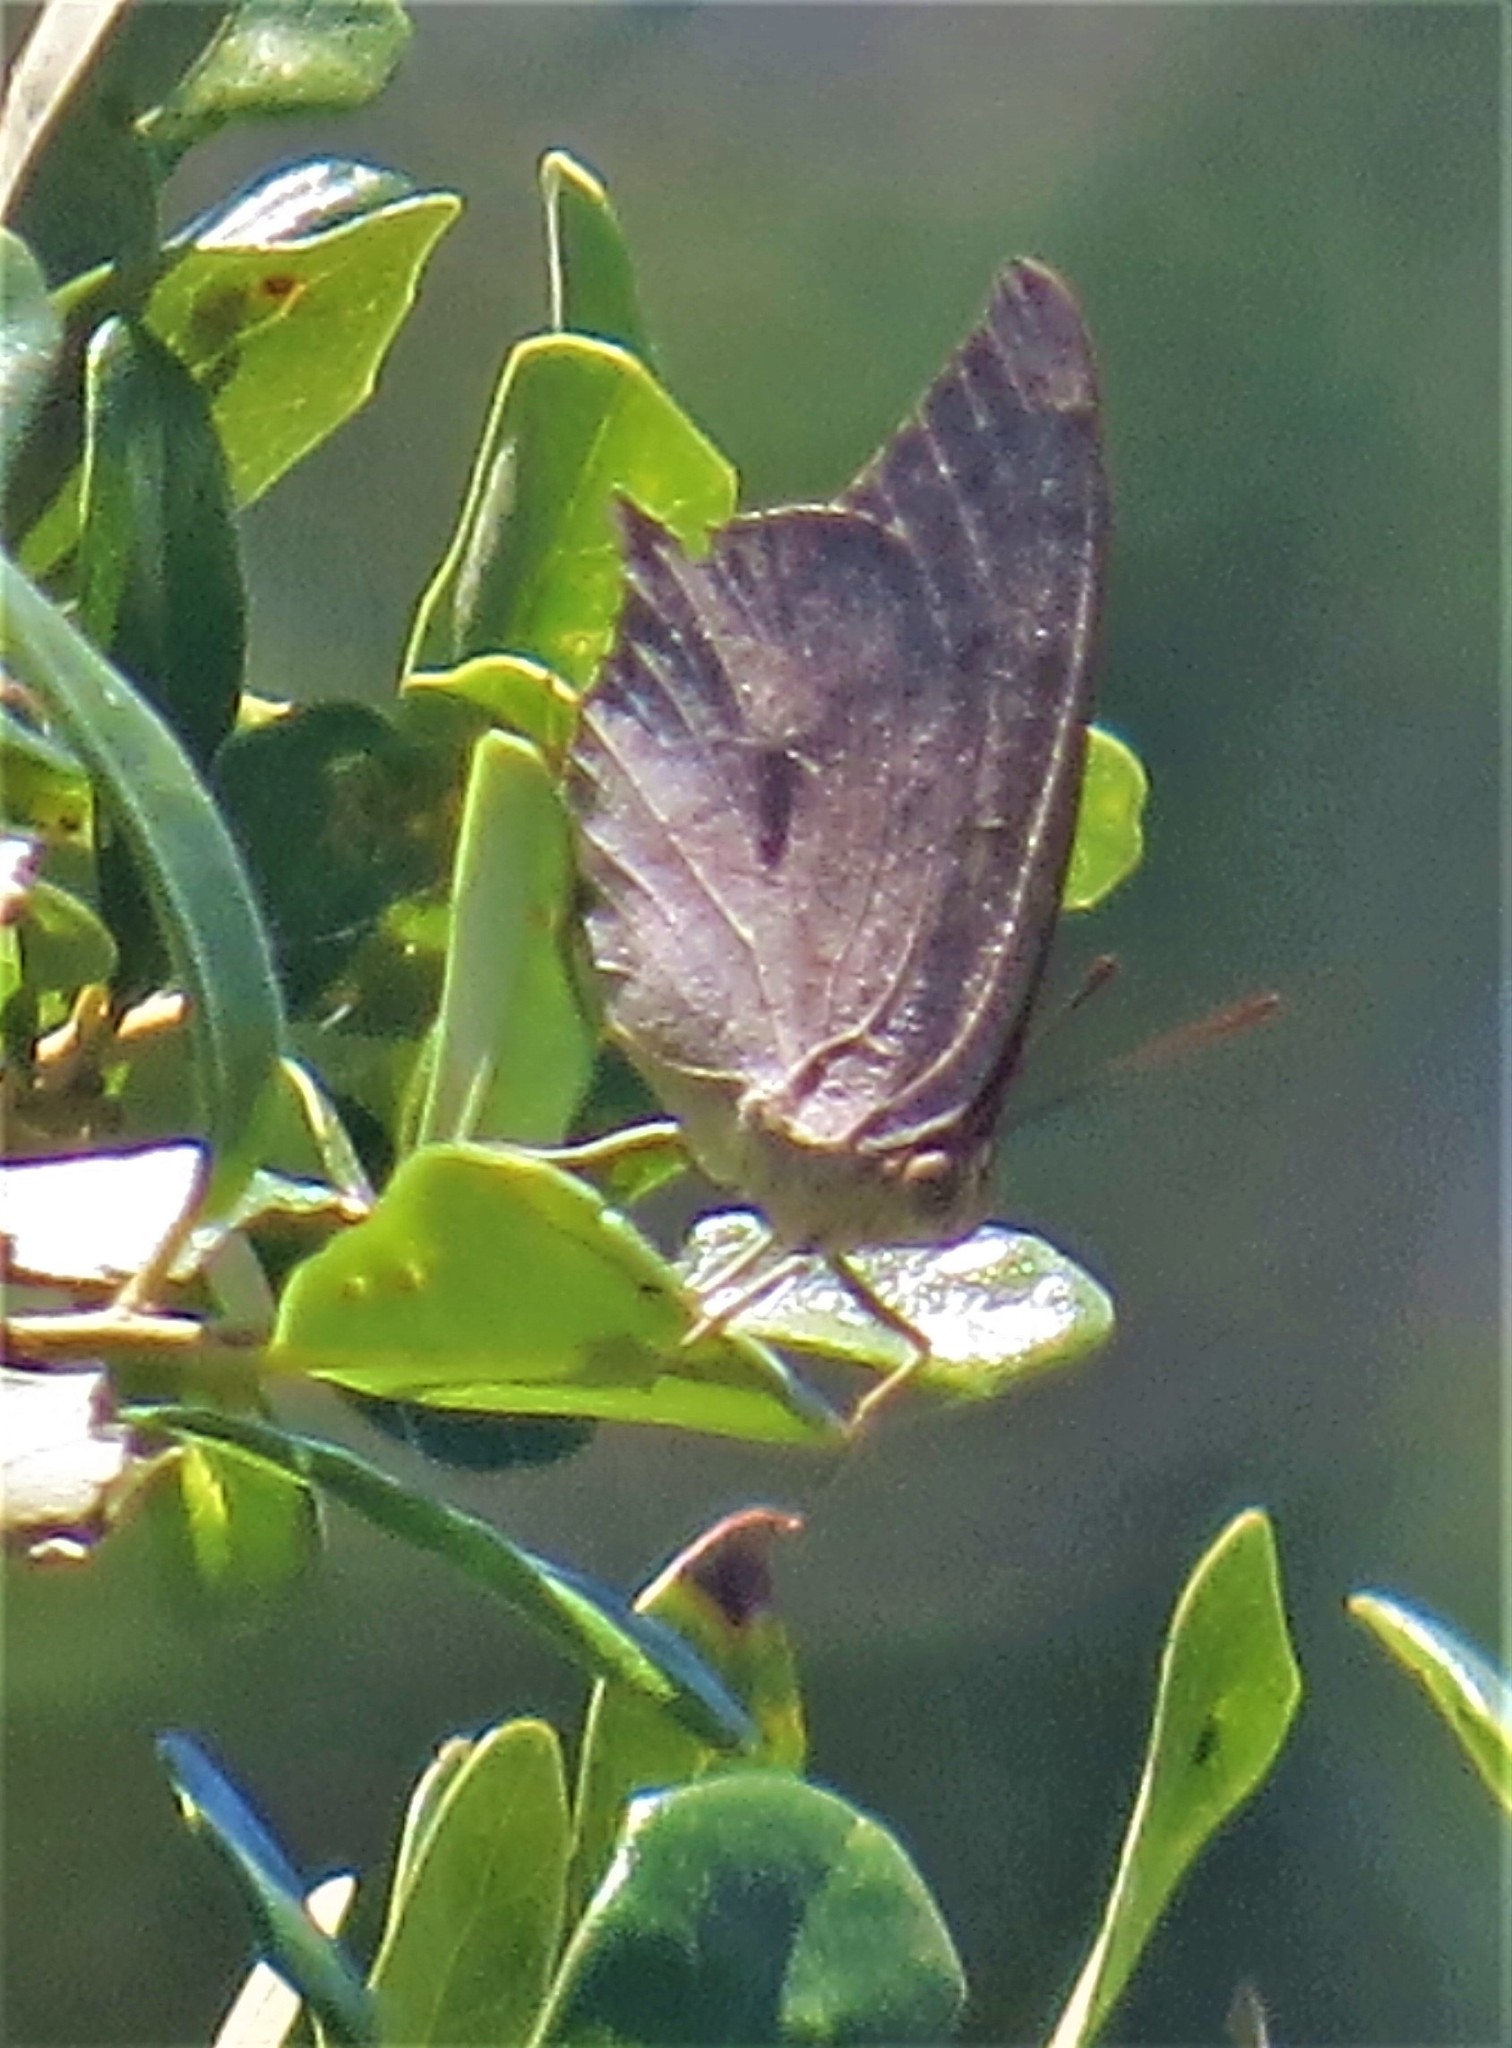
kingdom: Animalia
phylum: Arthropoda
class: Insecta
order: Lepidoptera
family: Nymphalidae
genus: Anaea
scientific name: Anaea andria
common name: Goatweed leafwing
